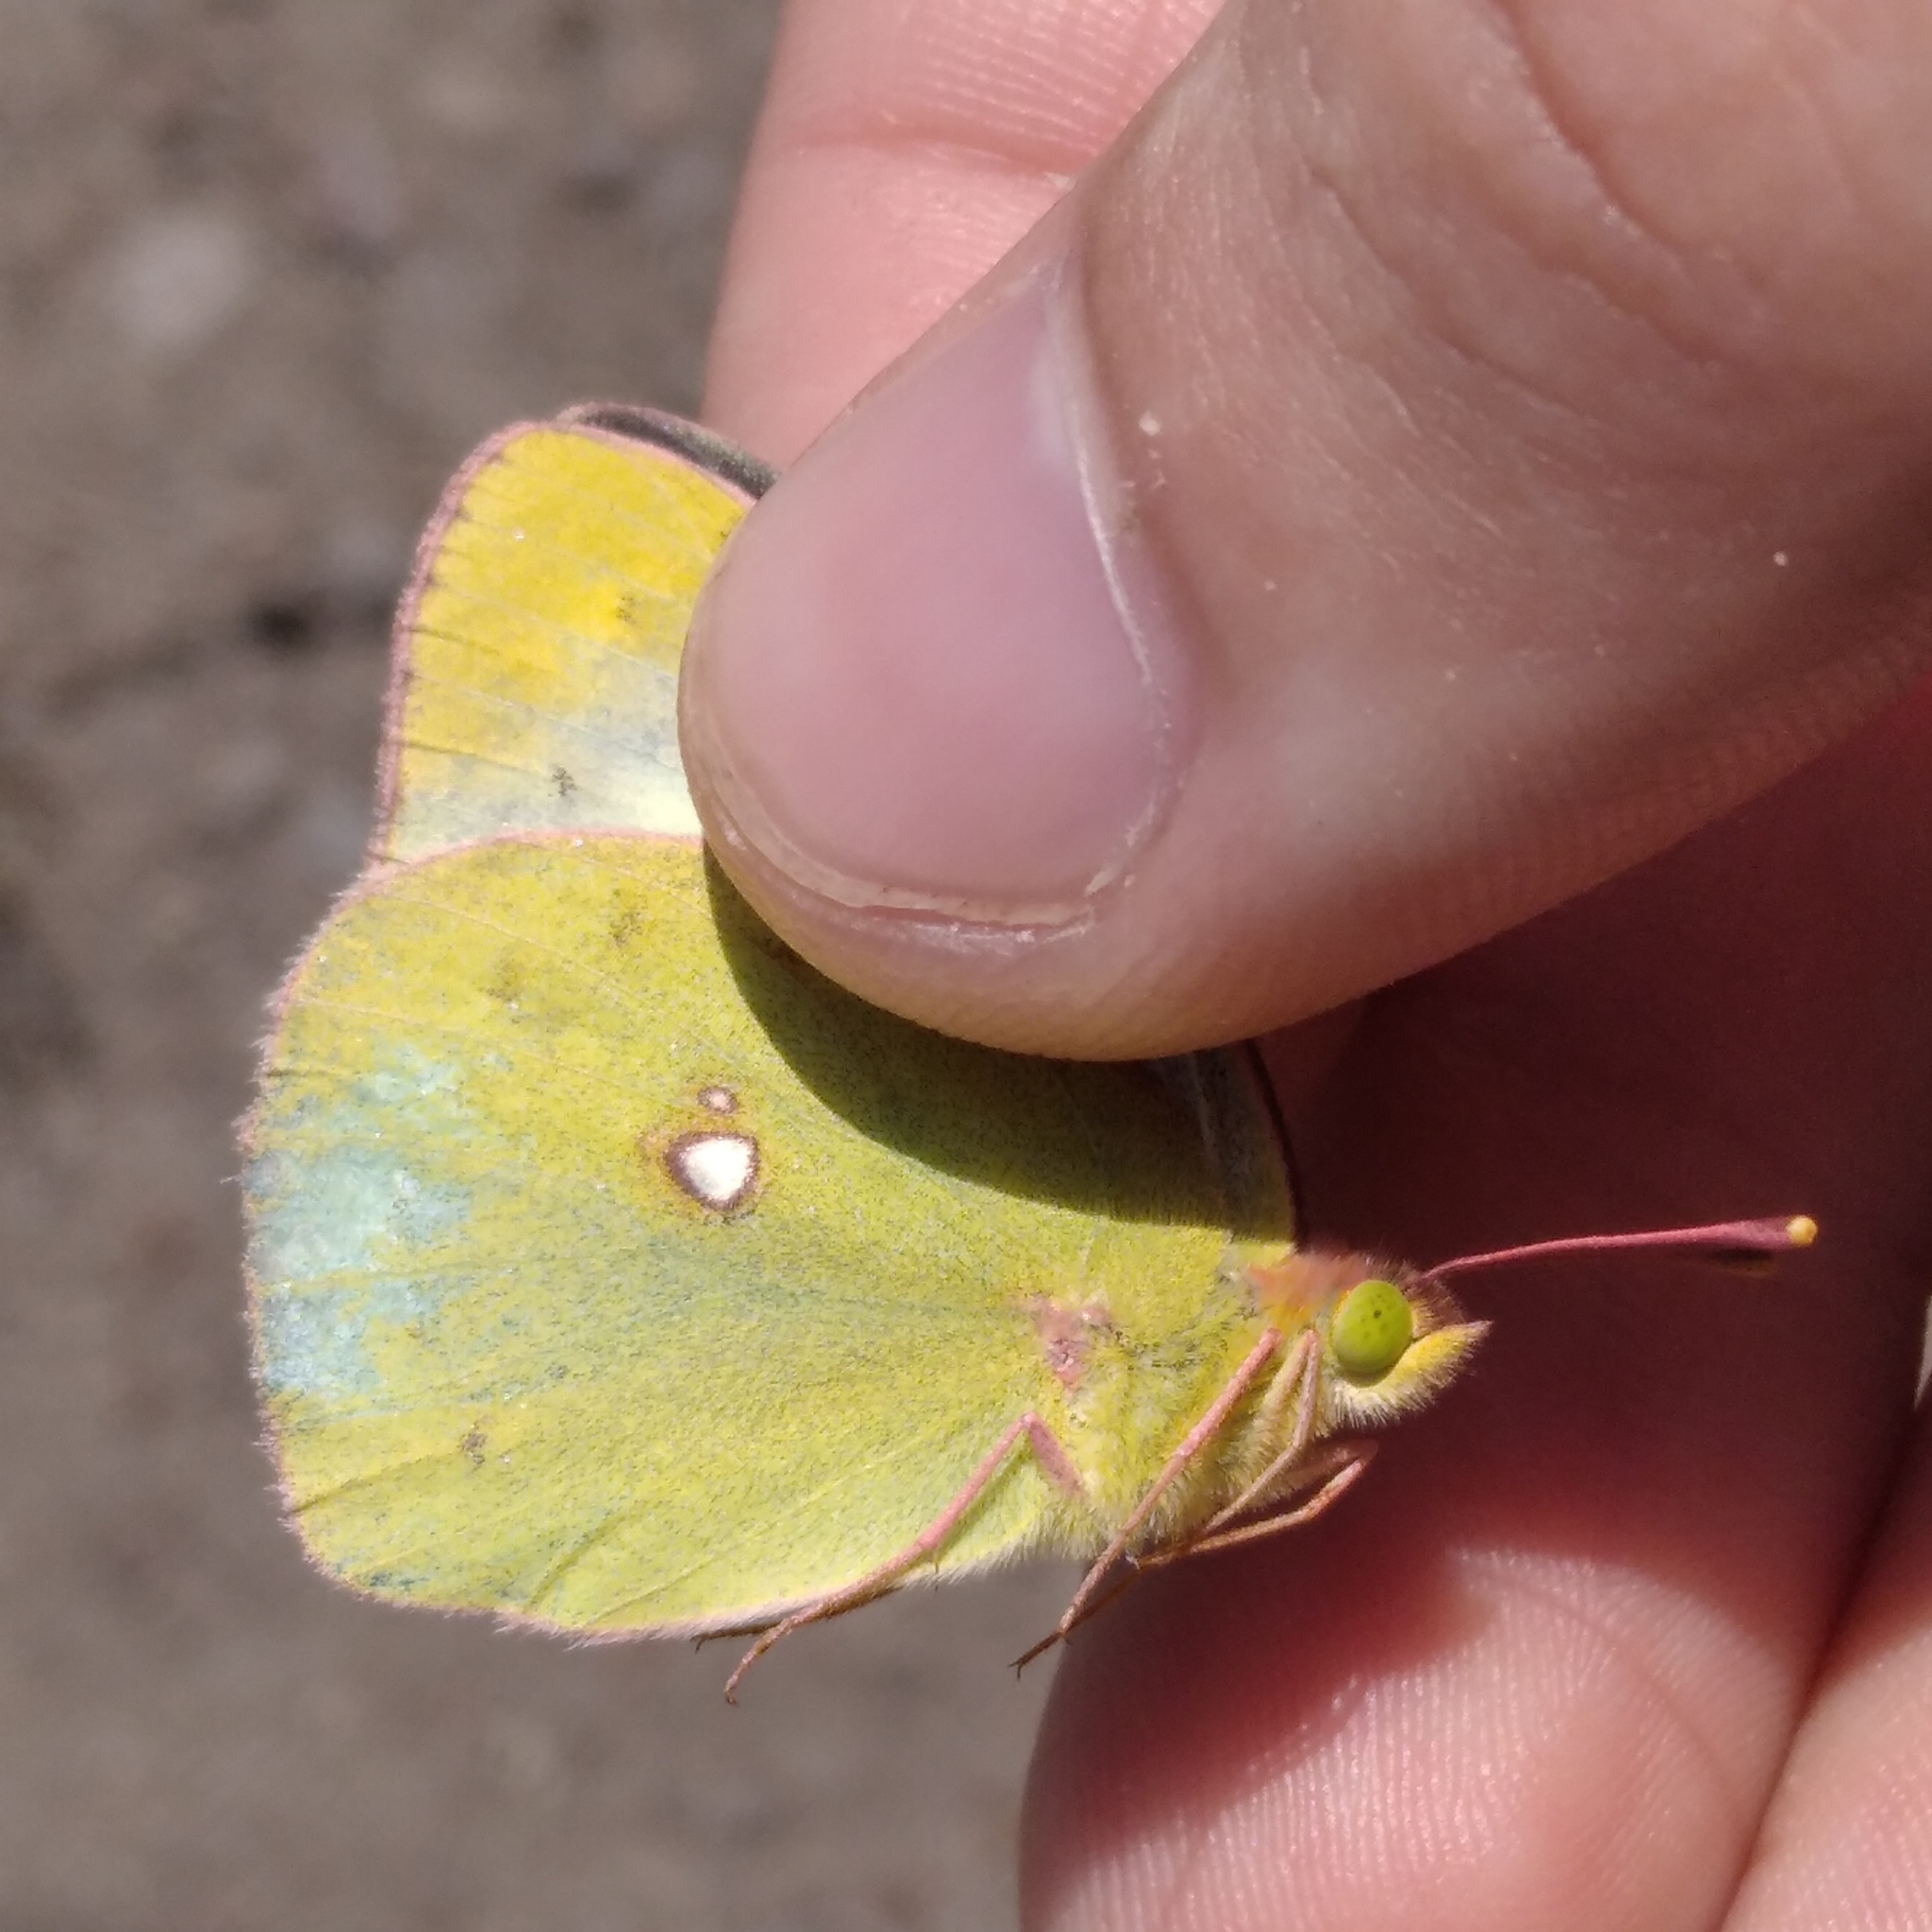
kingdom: Animalia
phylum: Arthropoda
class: Insecta
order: Lepidoptera
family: Pieridae
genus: Colias
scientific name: Colias hyale
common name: Pale clouded yellow
